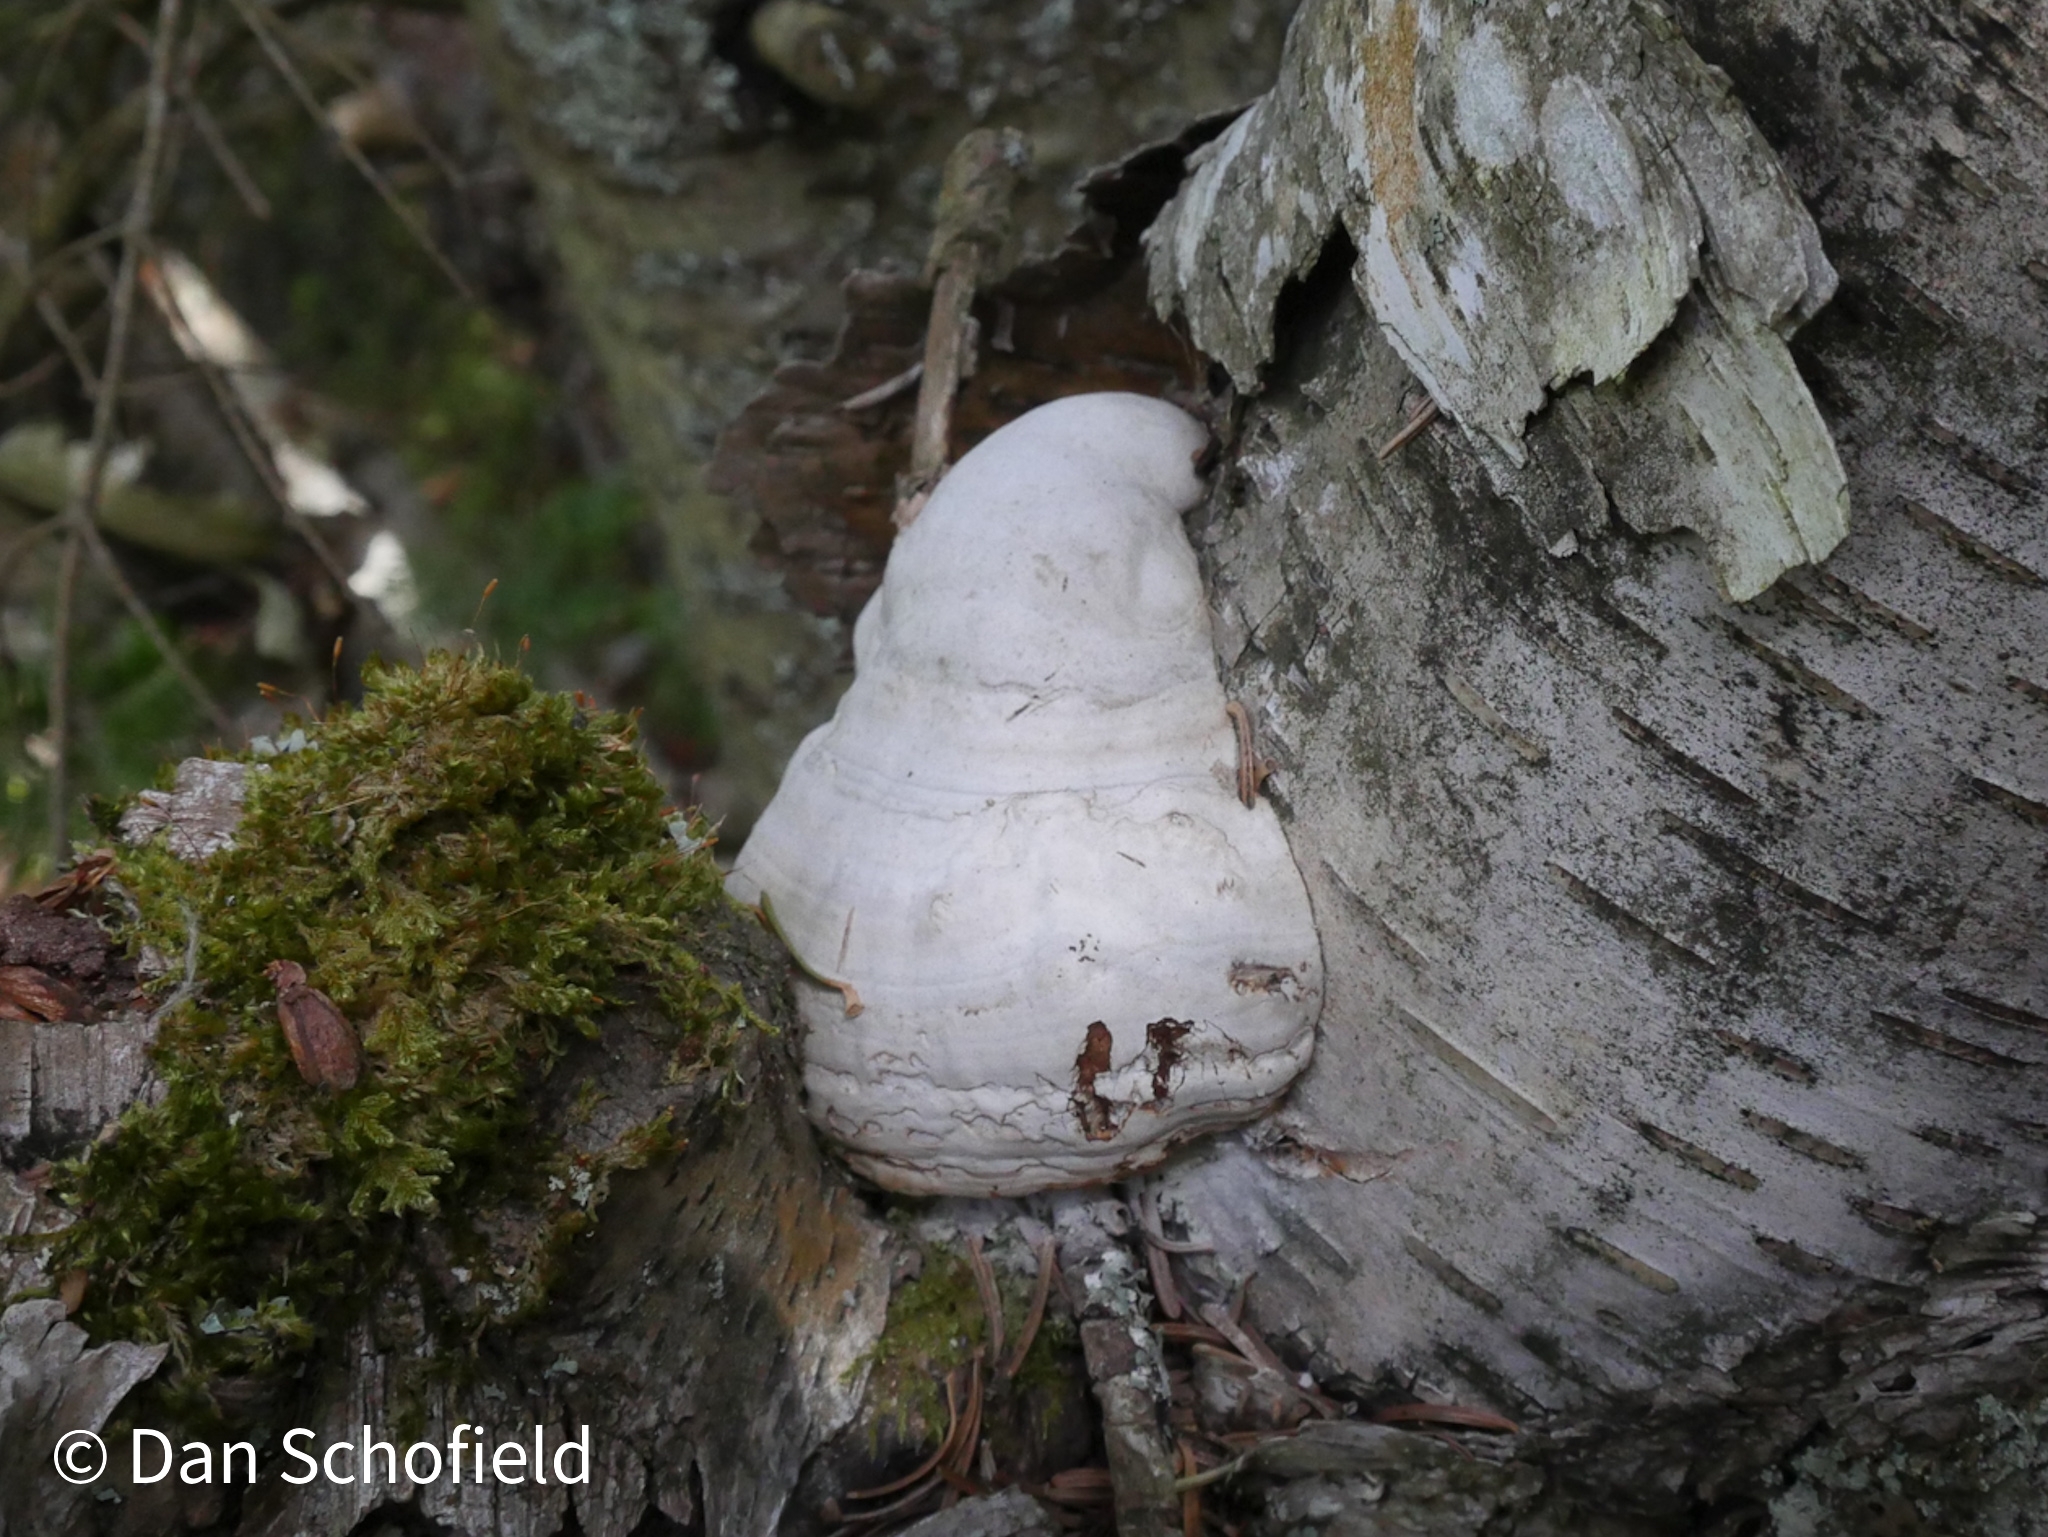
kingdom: Fungi
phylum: Basidiomycota
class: Agaricomycetes
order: Polyporales
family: Polyporaceae
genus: Fomes
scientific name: Fomes fomentarius
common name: Hoof fungus
